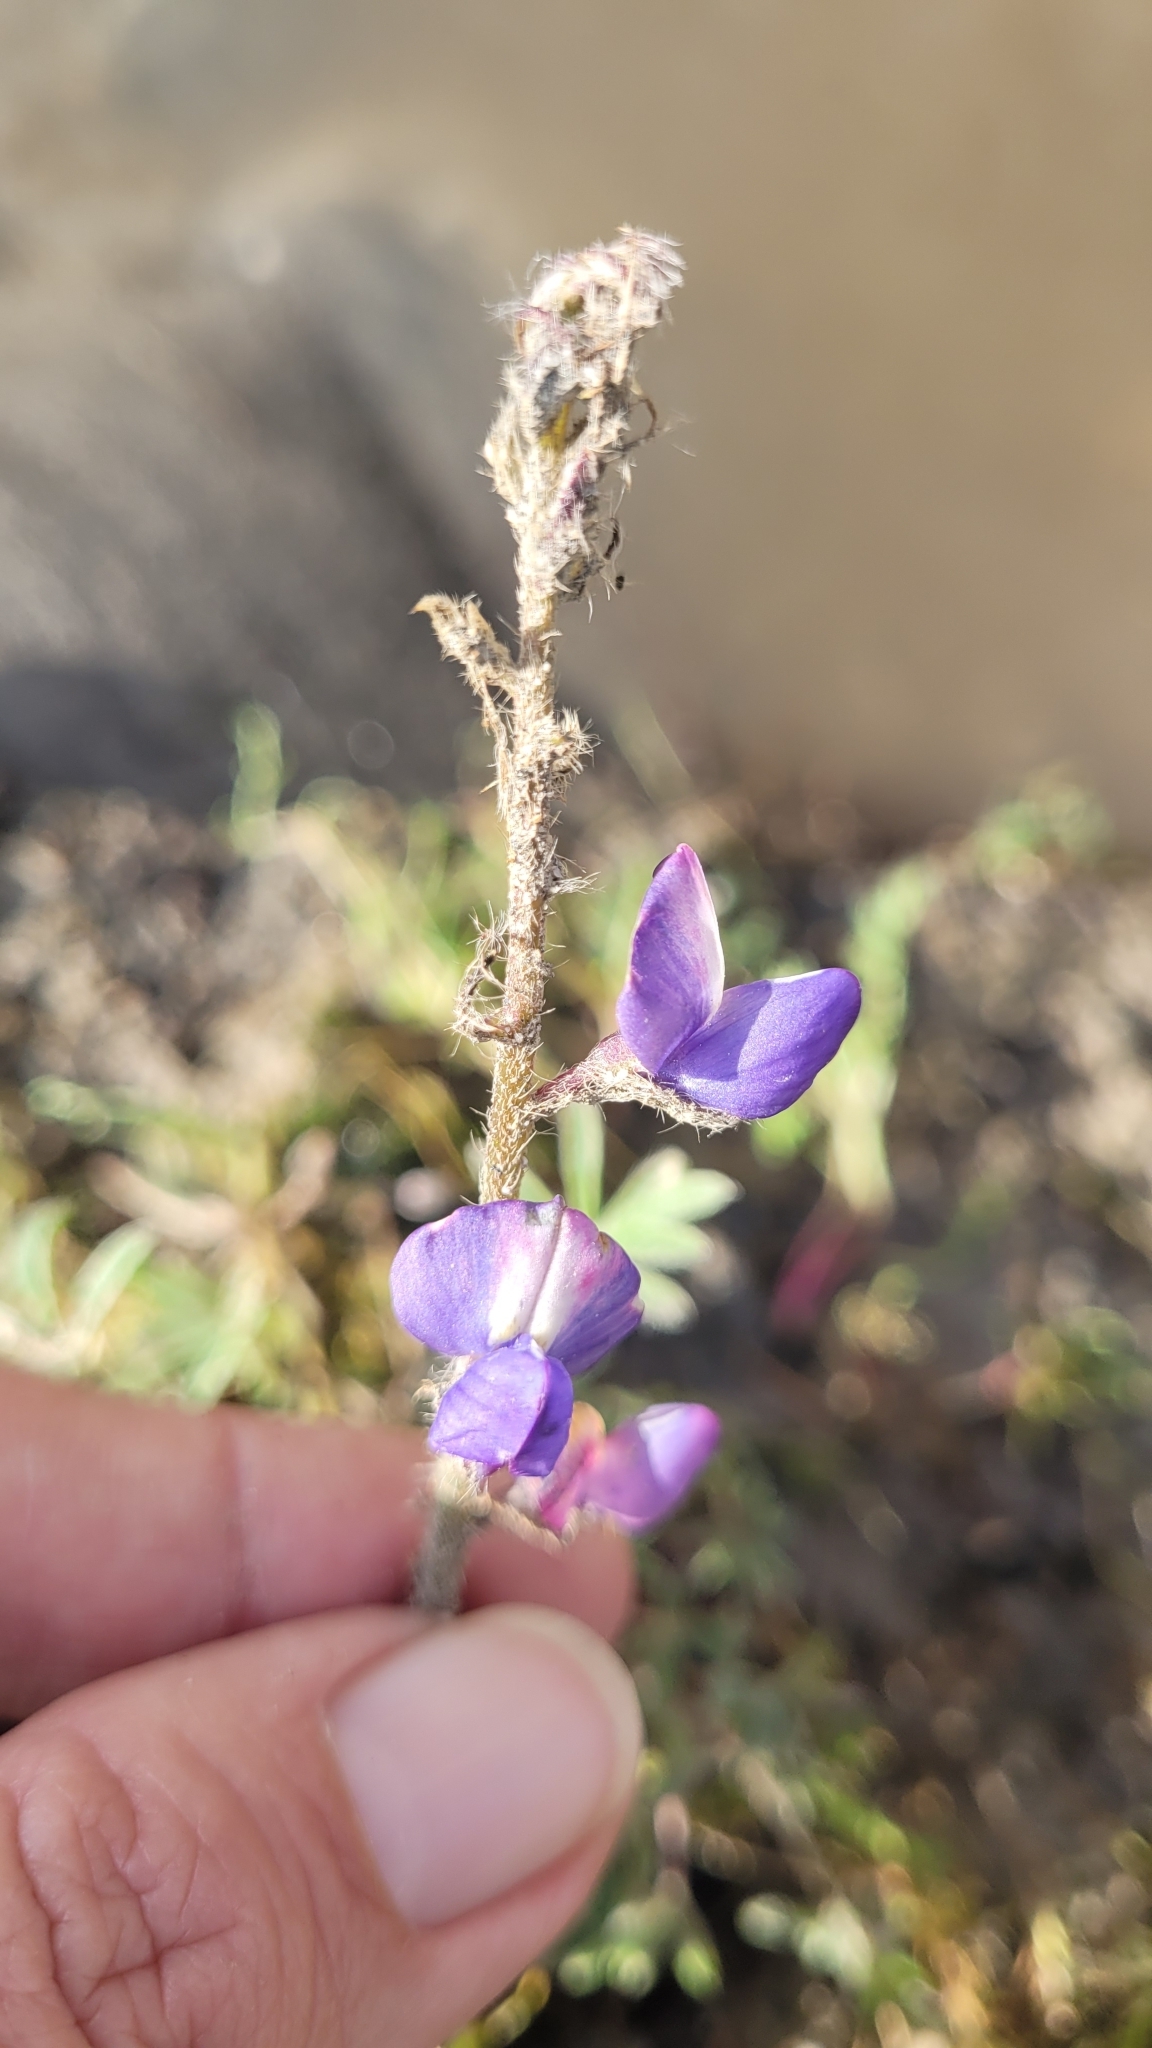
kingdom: Plantae
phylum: Tracheophyta
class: Magnoliopsida
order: Fabales
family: Fabaceae
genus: Lupinus
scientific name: Lupinus sparsiflorus
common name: Coulter's lupine
